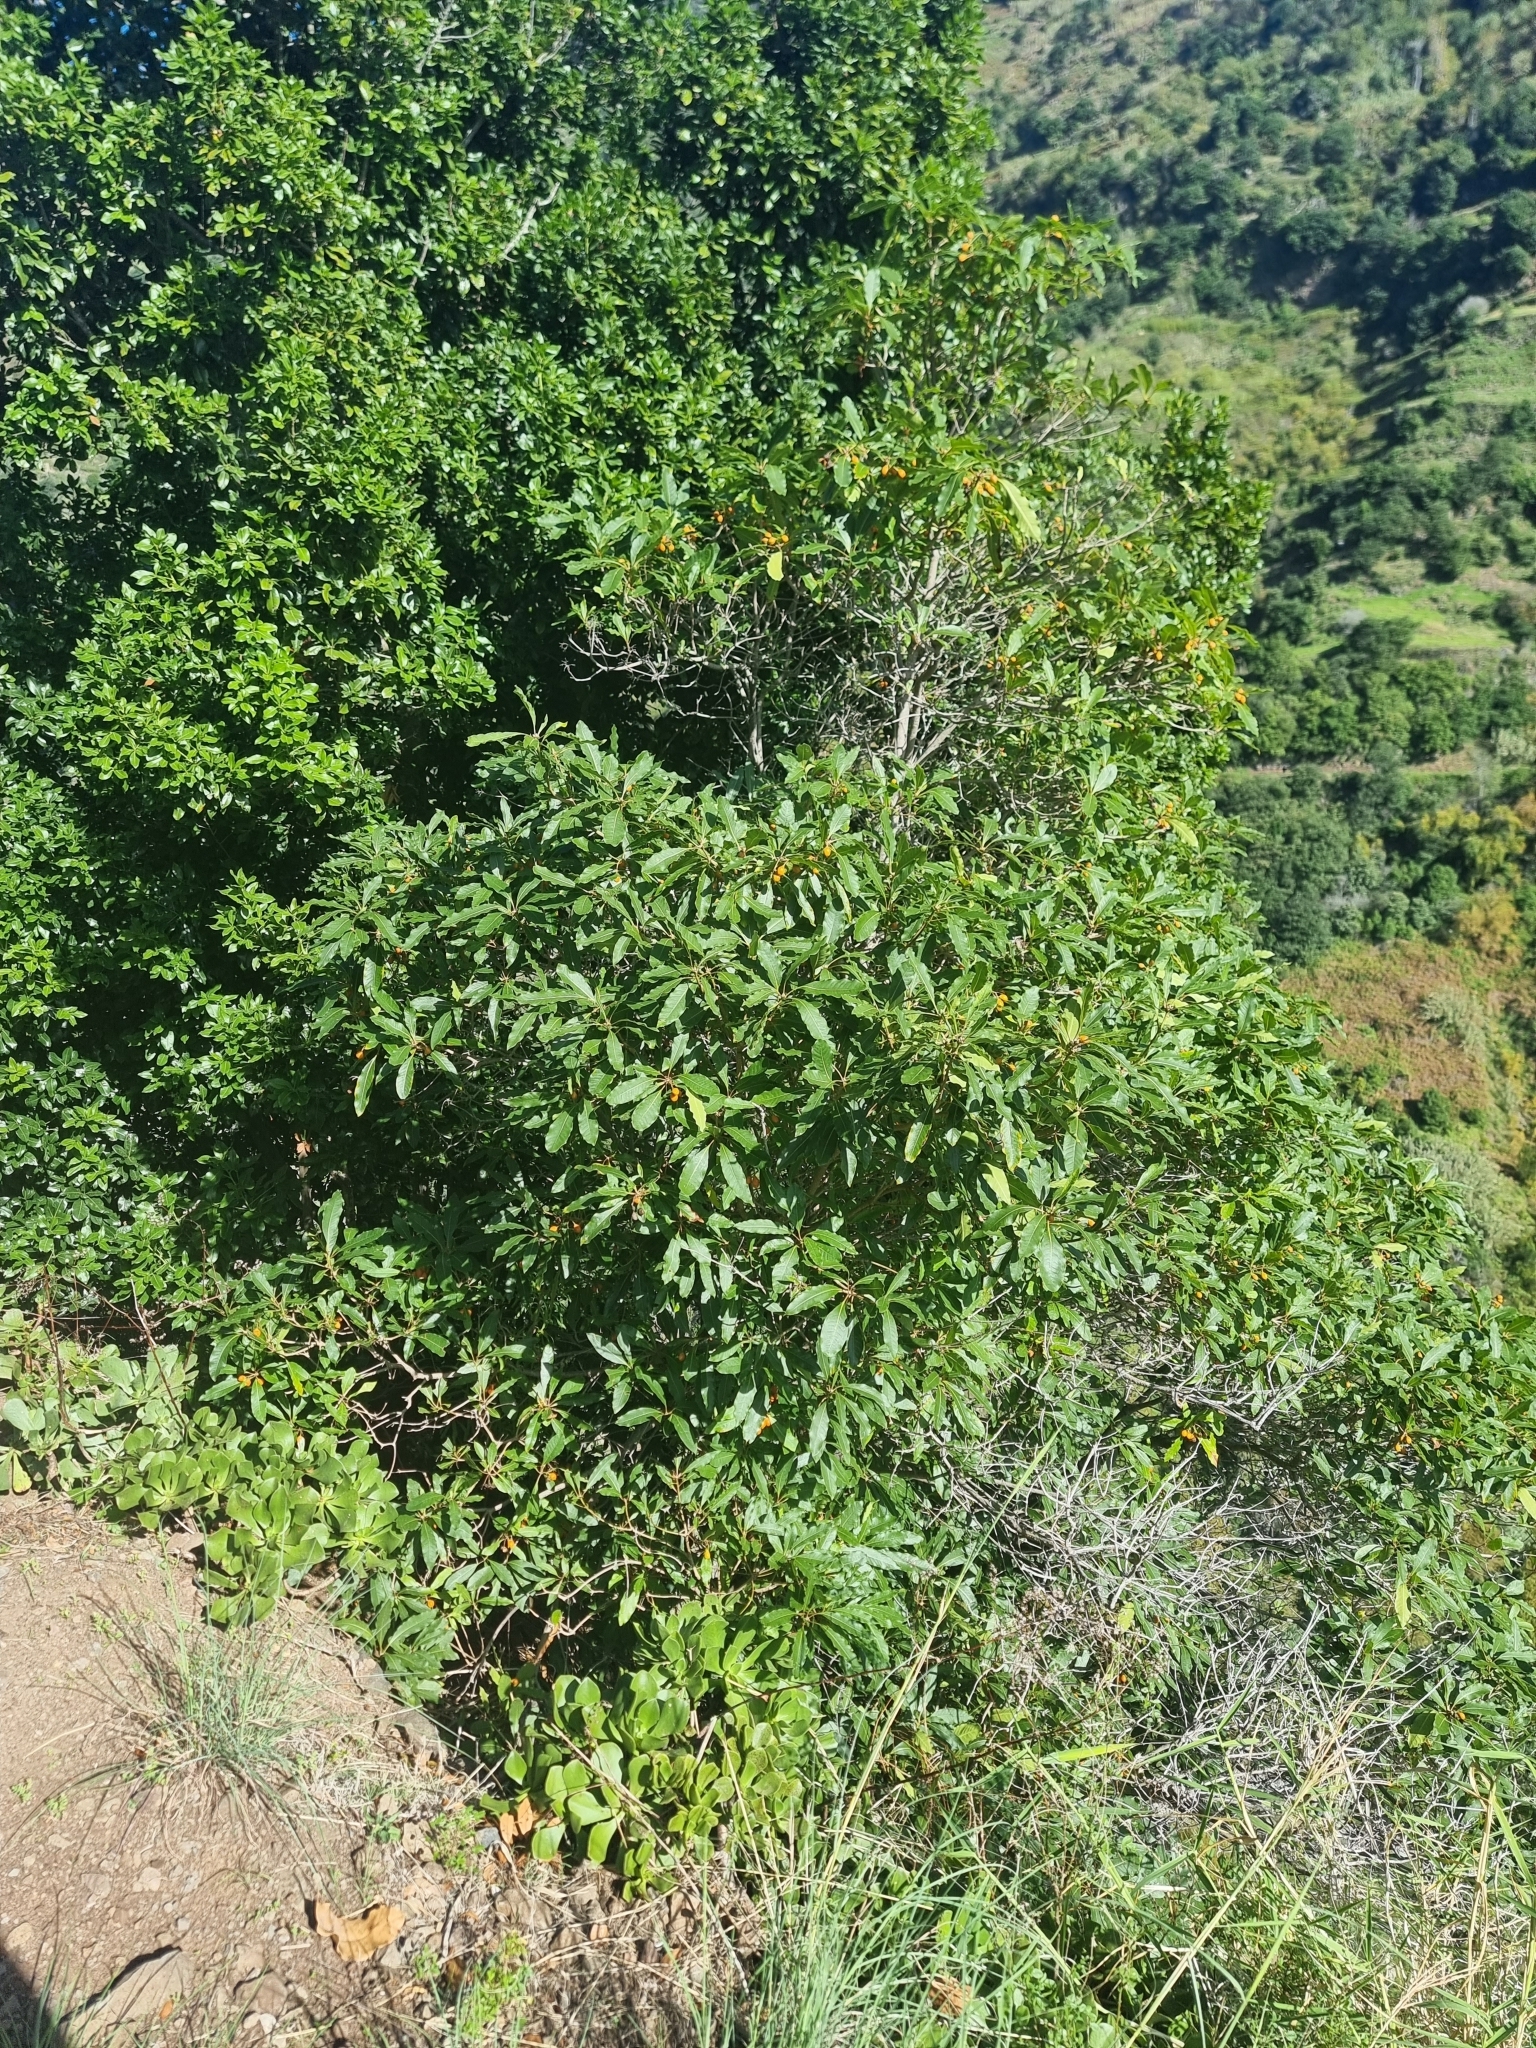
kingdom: Plantae
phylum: Tracheophyta
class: Magnoliopsida
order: Apiales
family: Pittosporaceae
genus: Pittosporum
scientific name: Pittosporum undulatum
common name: Australian cheesewood
